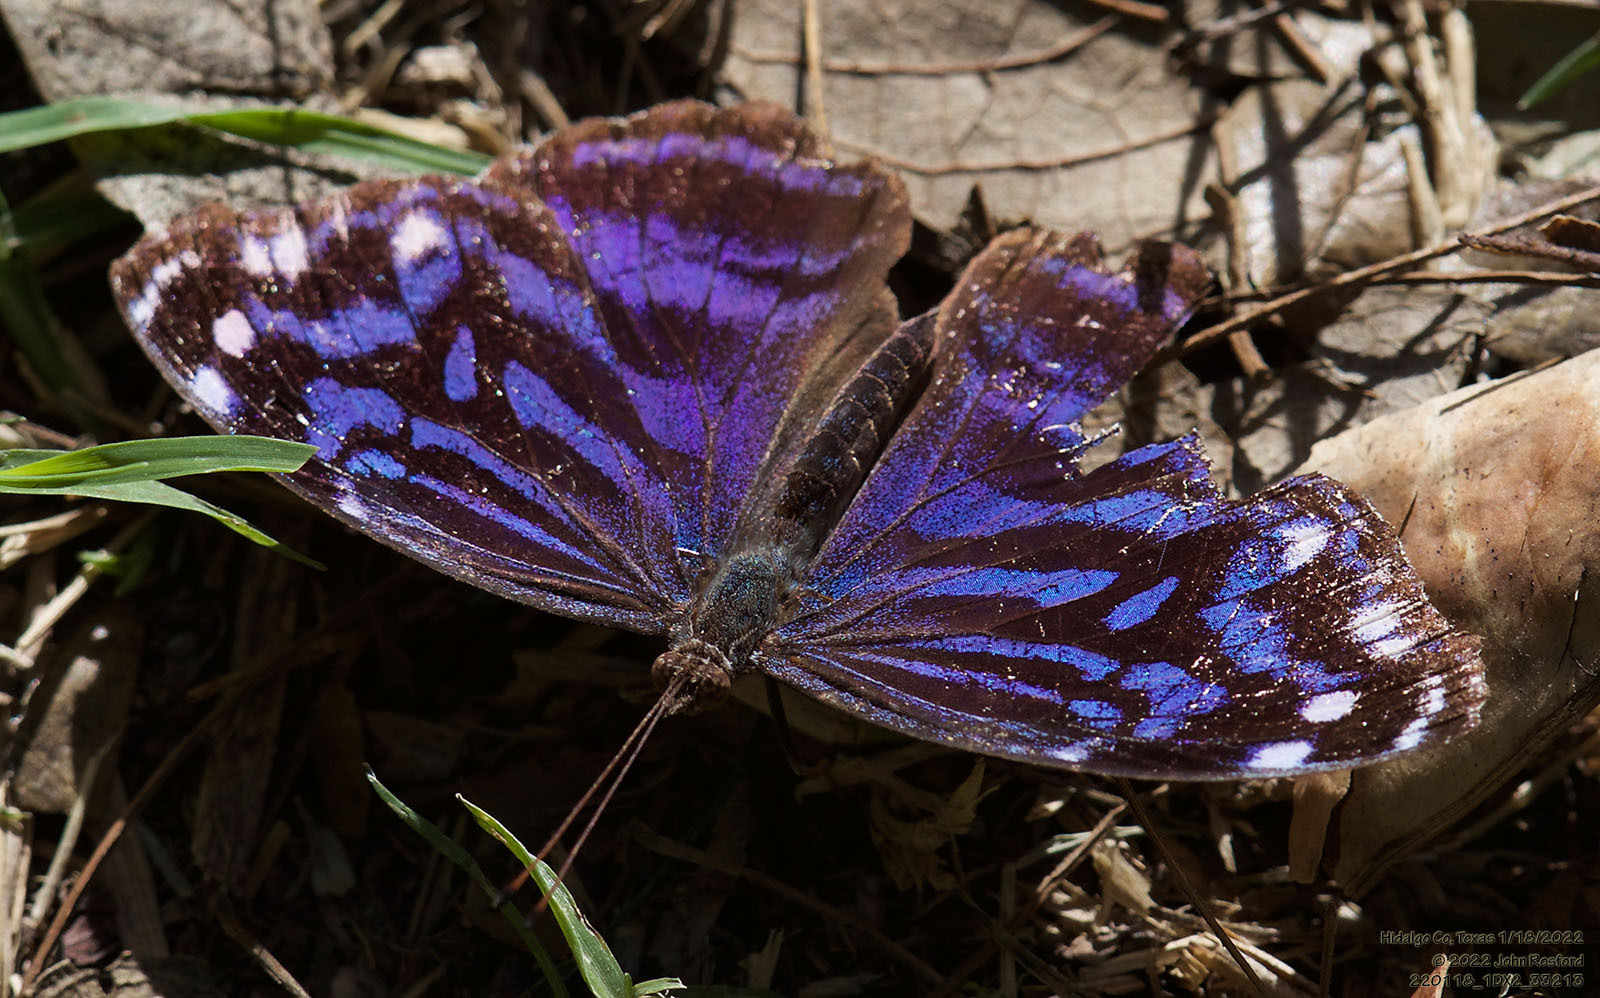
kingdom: Animalia
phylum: Arthropoda
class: Insecta
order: Lepidoptera
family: Nymphalidae
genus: Myscelia
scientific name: Myscelia ethusa
